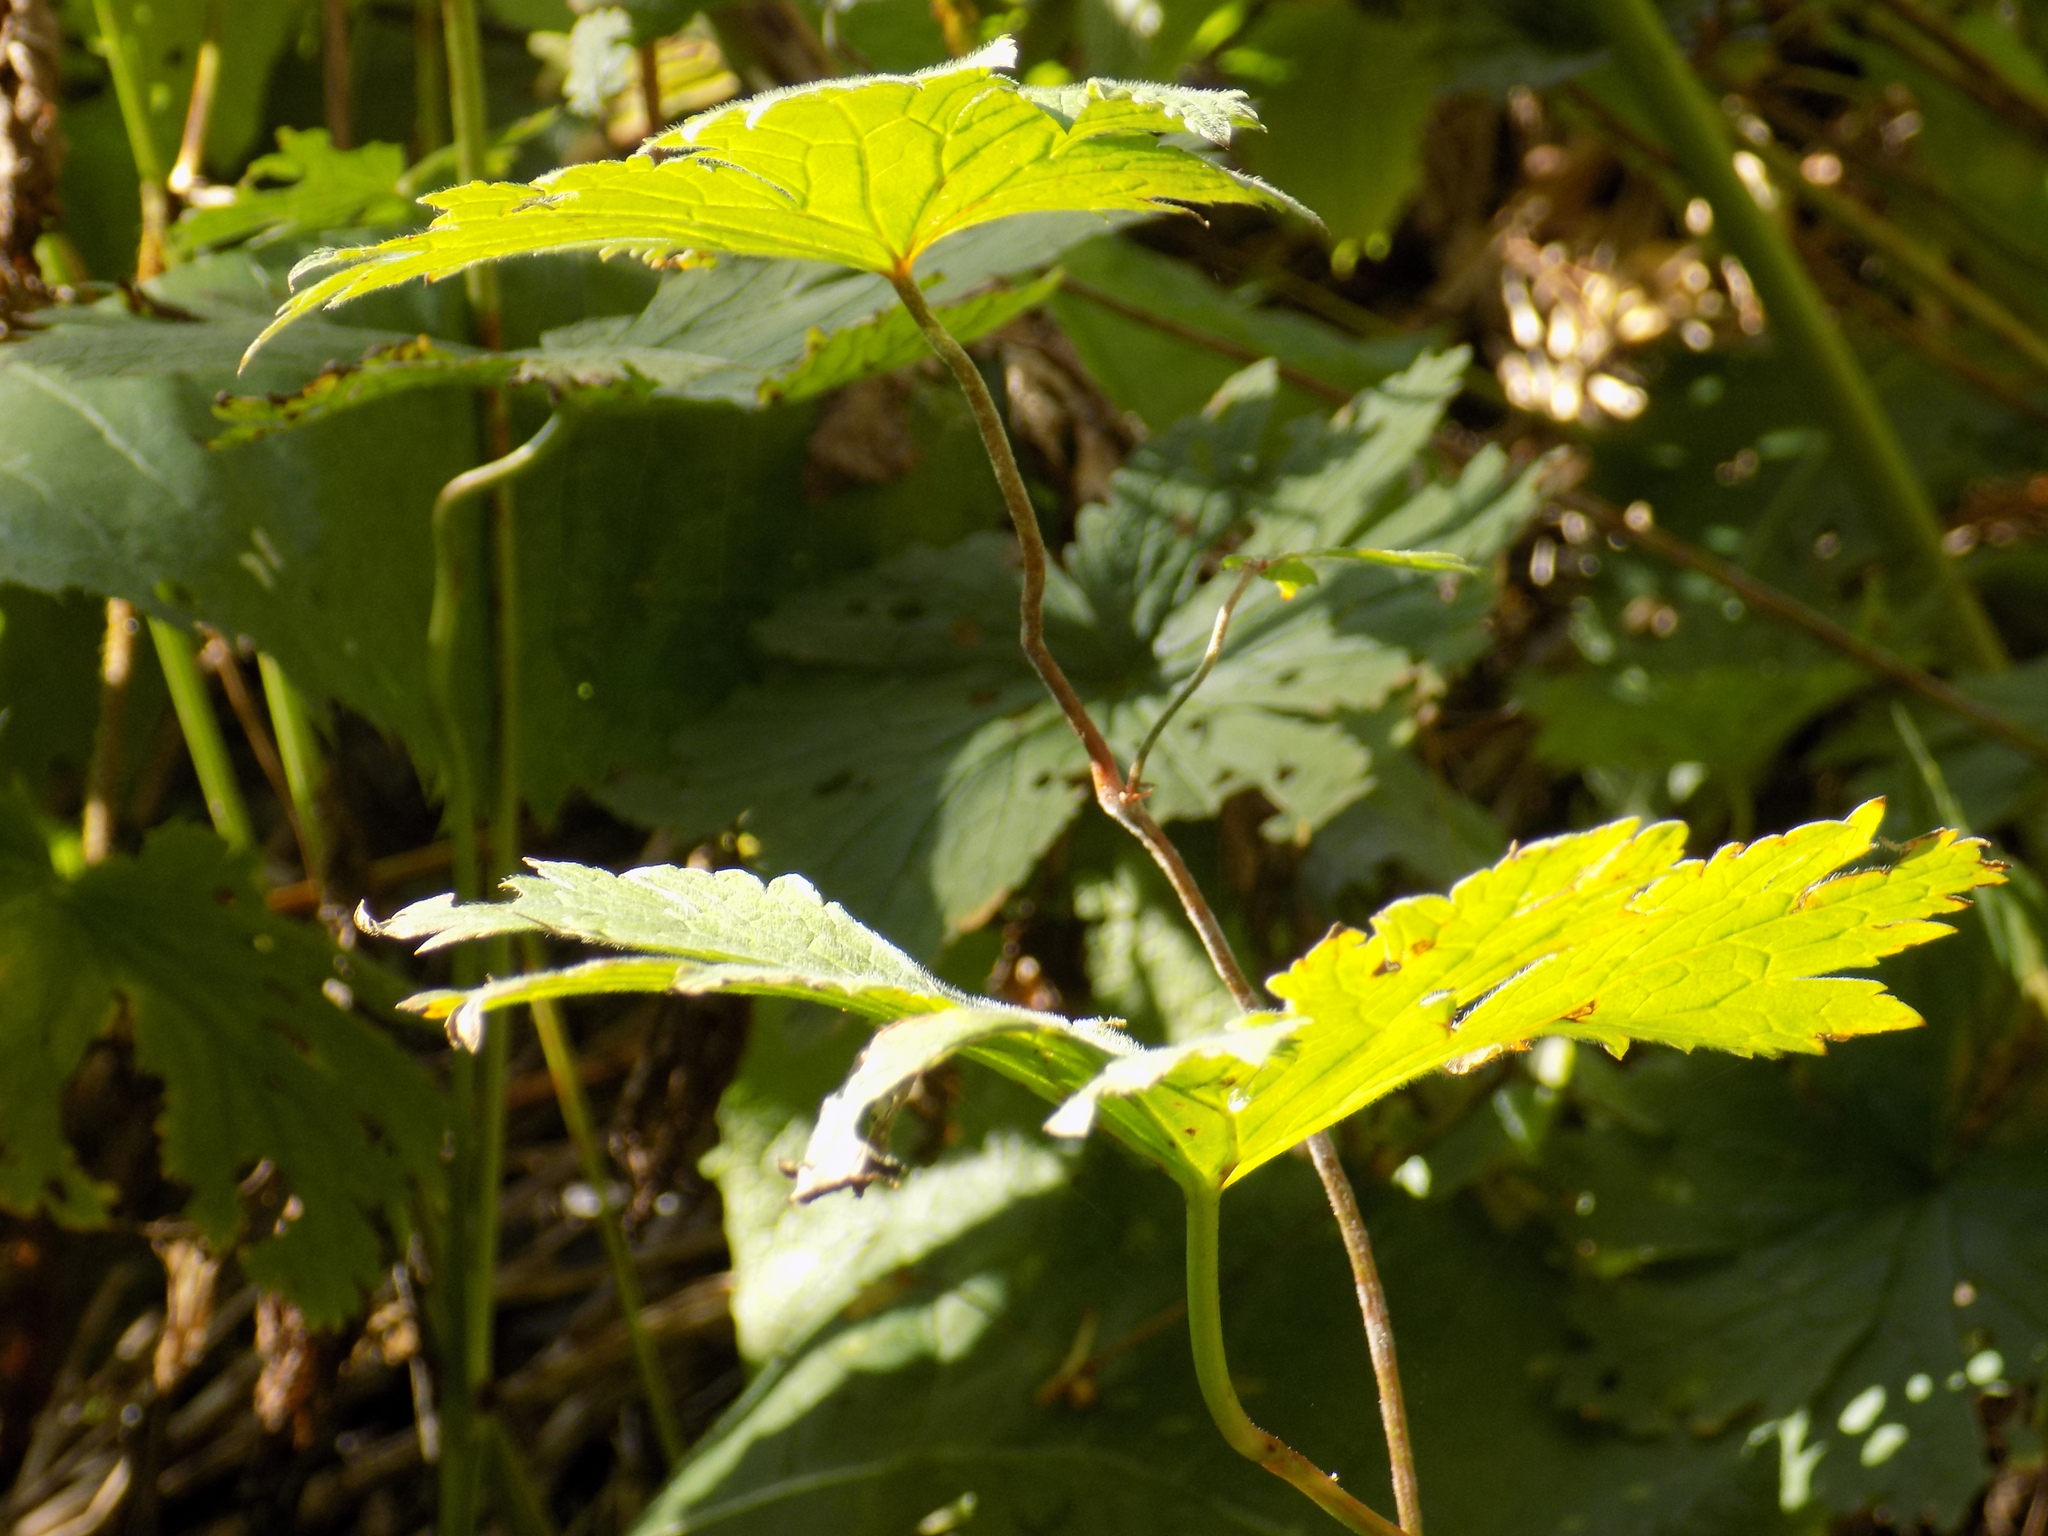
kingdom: Plantae
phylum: Tracheophyta
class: Magnoliopsida
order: Ranunculales
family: Ranunculaceae
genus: Aconitum
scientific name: Aconitum septentrionale
